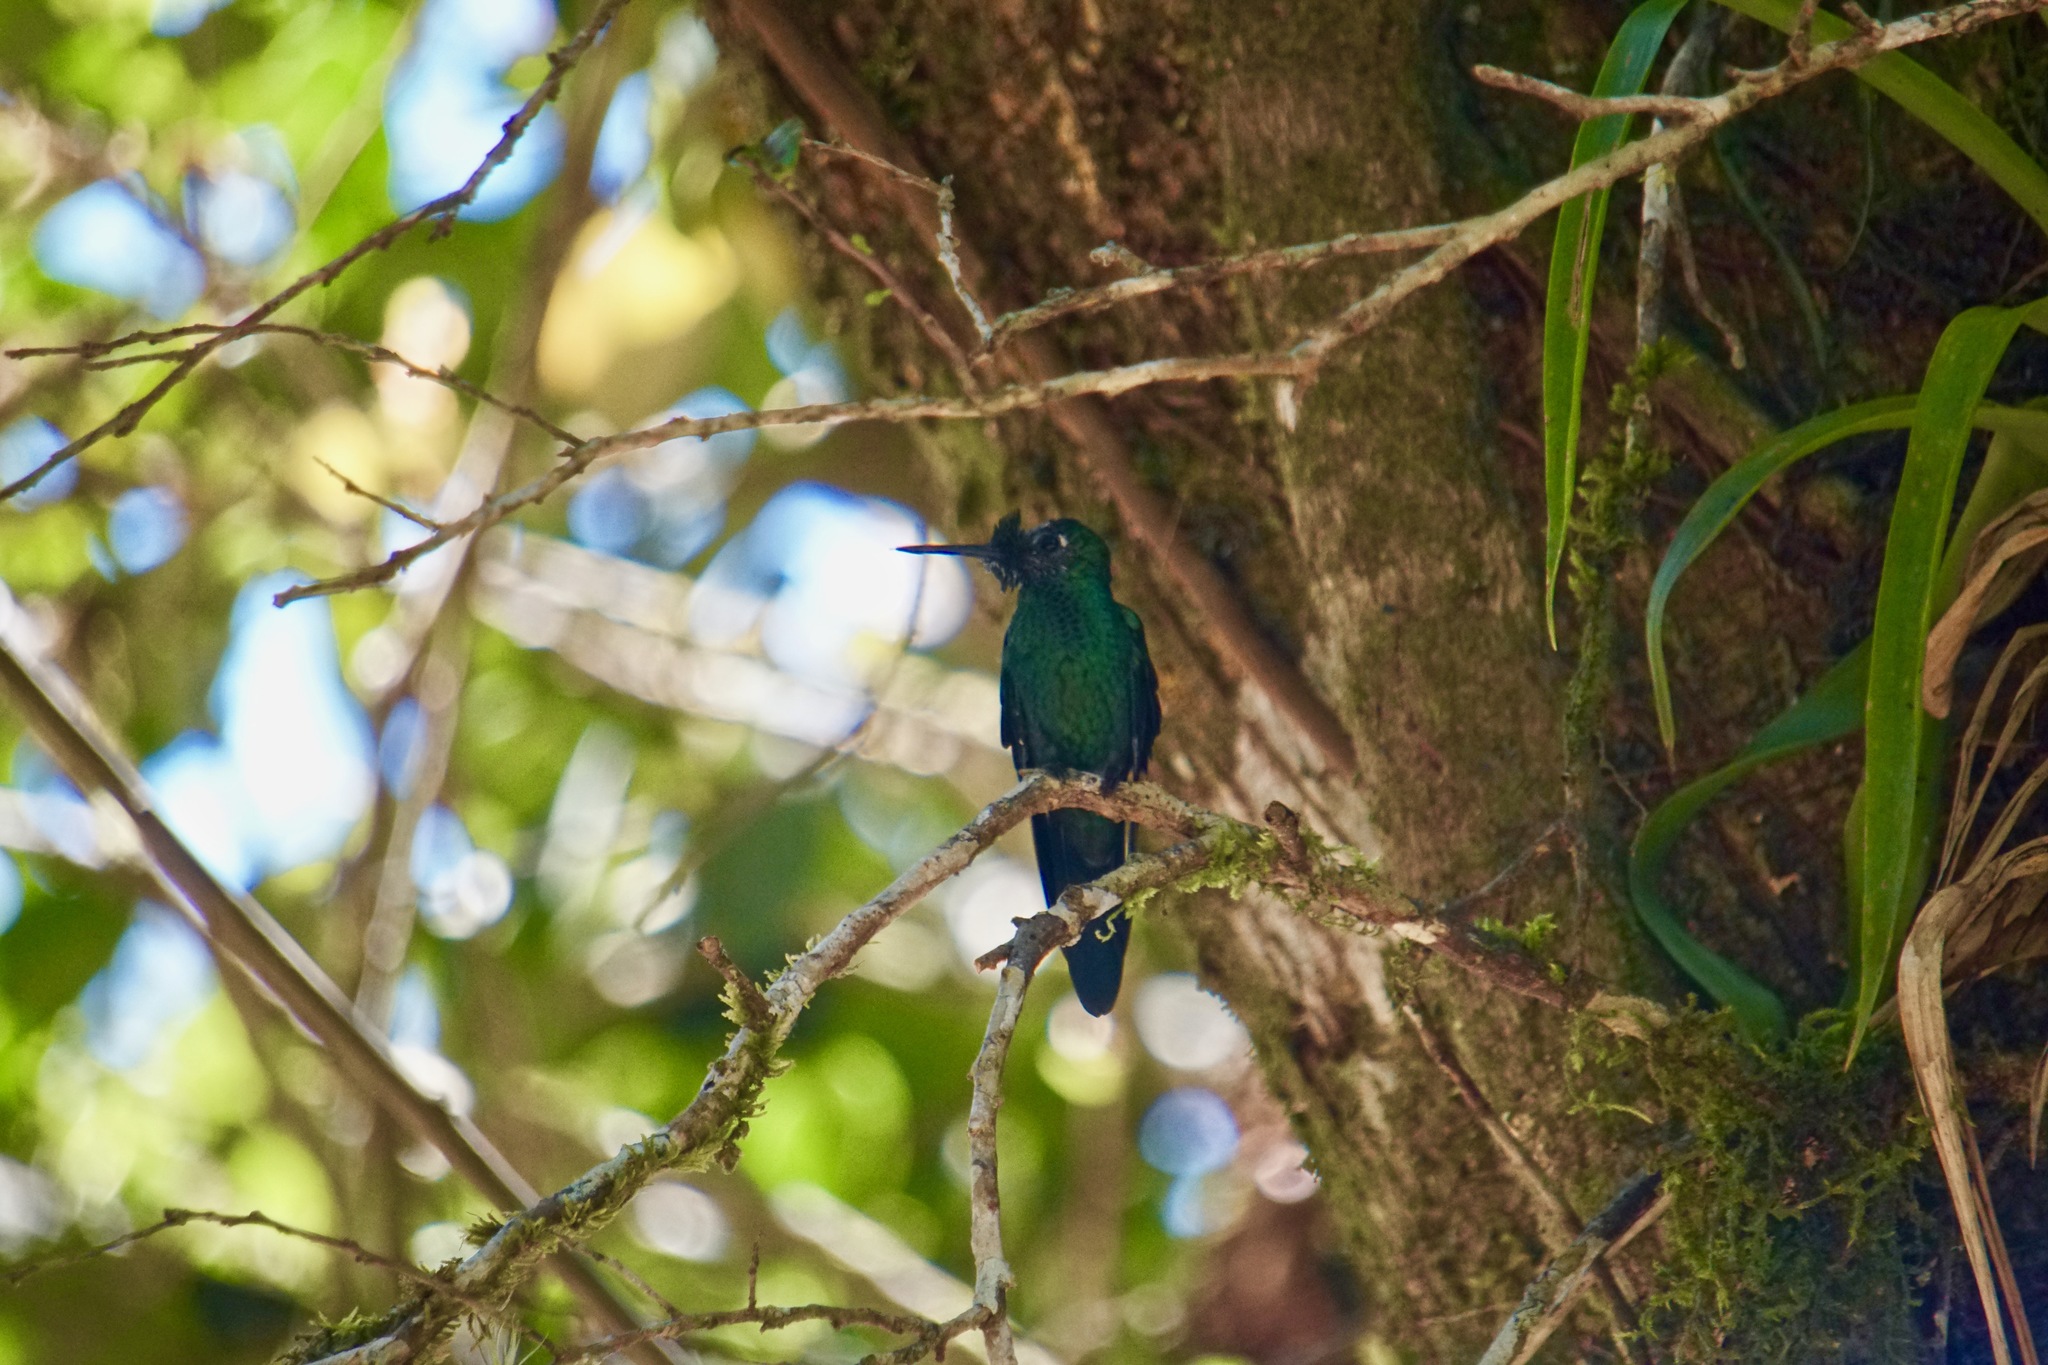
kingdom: Animalia
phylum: Chordata
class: Aves
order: Apodiformes
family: Trochilidae
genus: Heliodoxa
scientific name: Heliodoxa jacula
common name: Green-crowned brilliant
